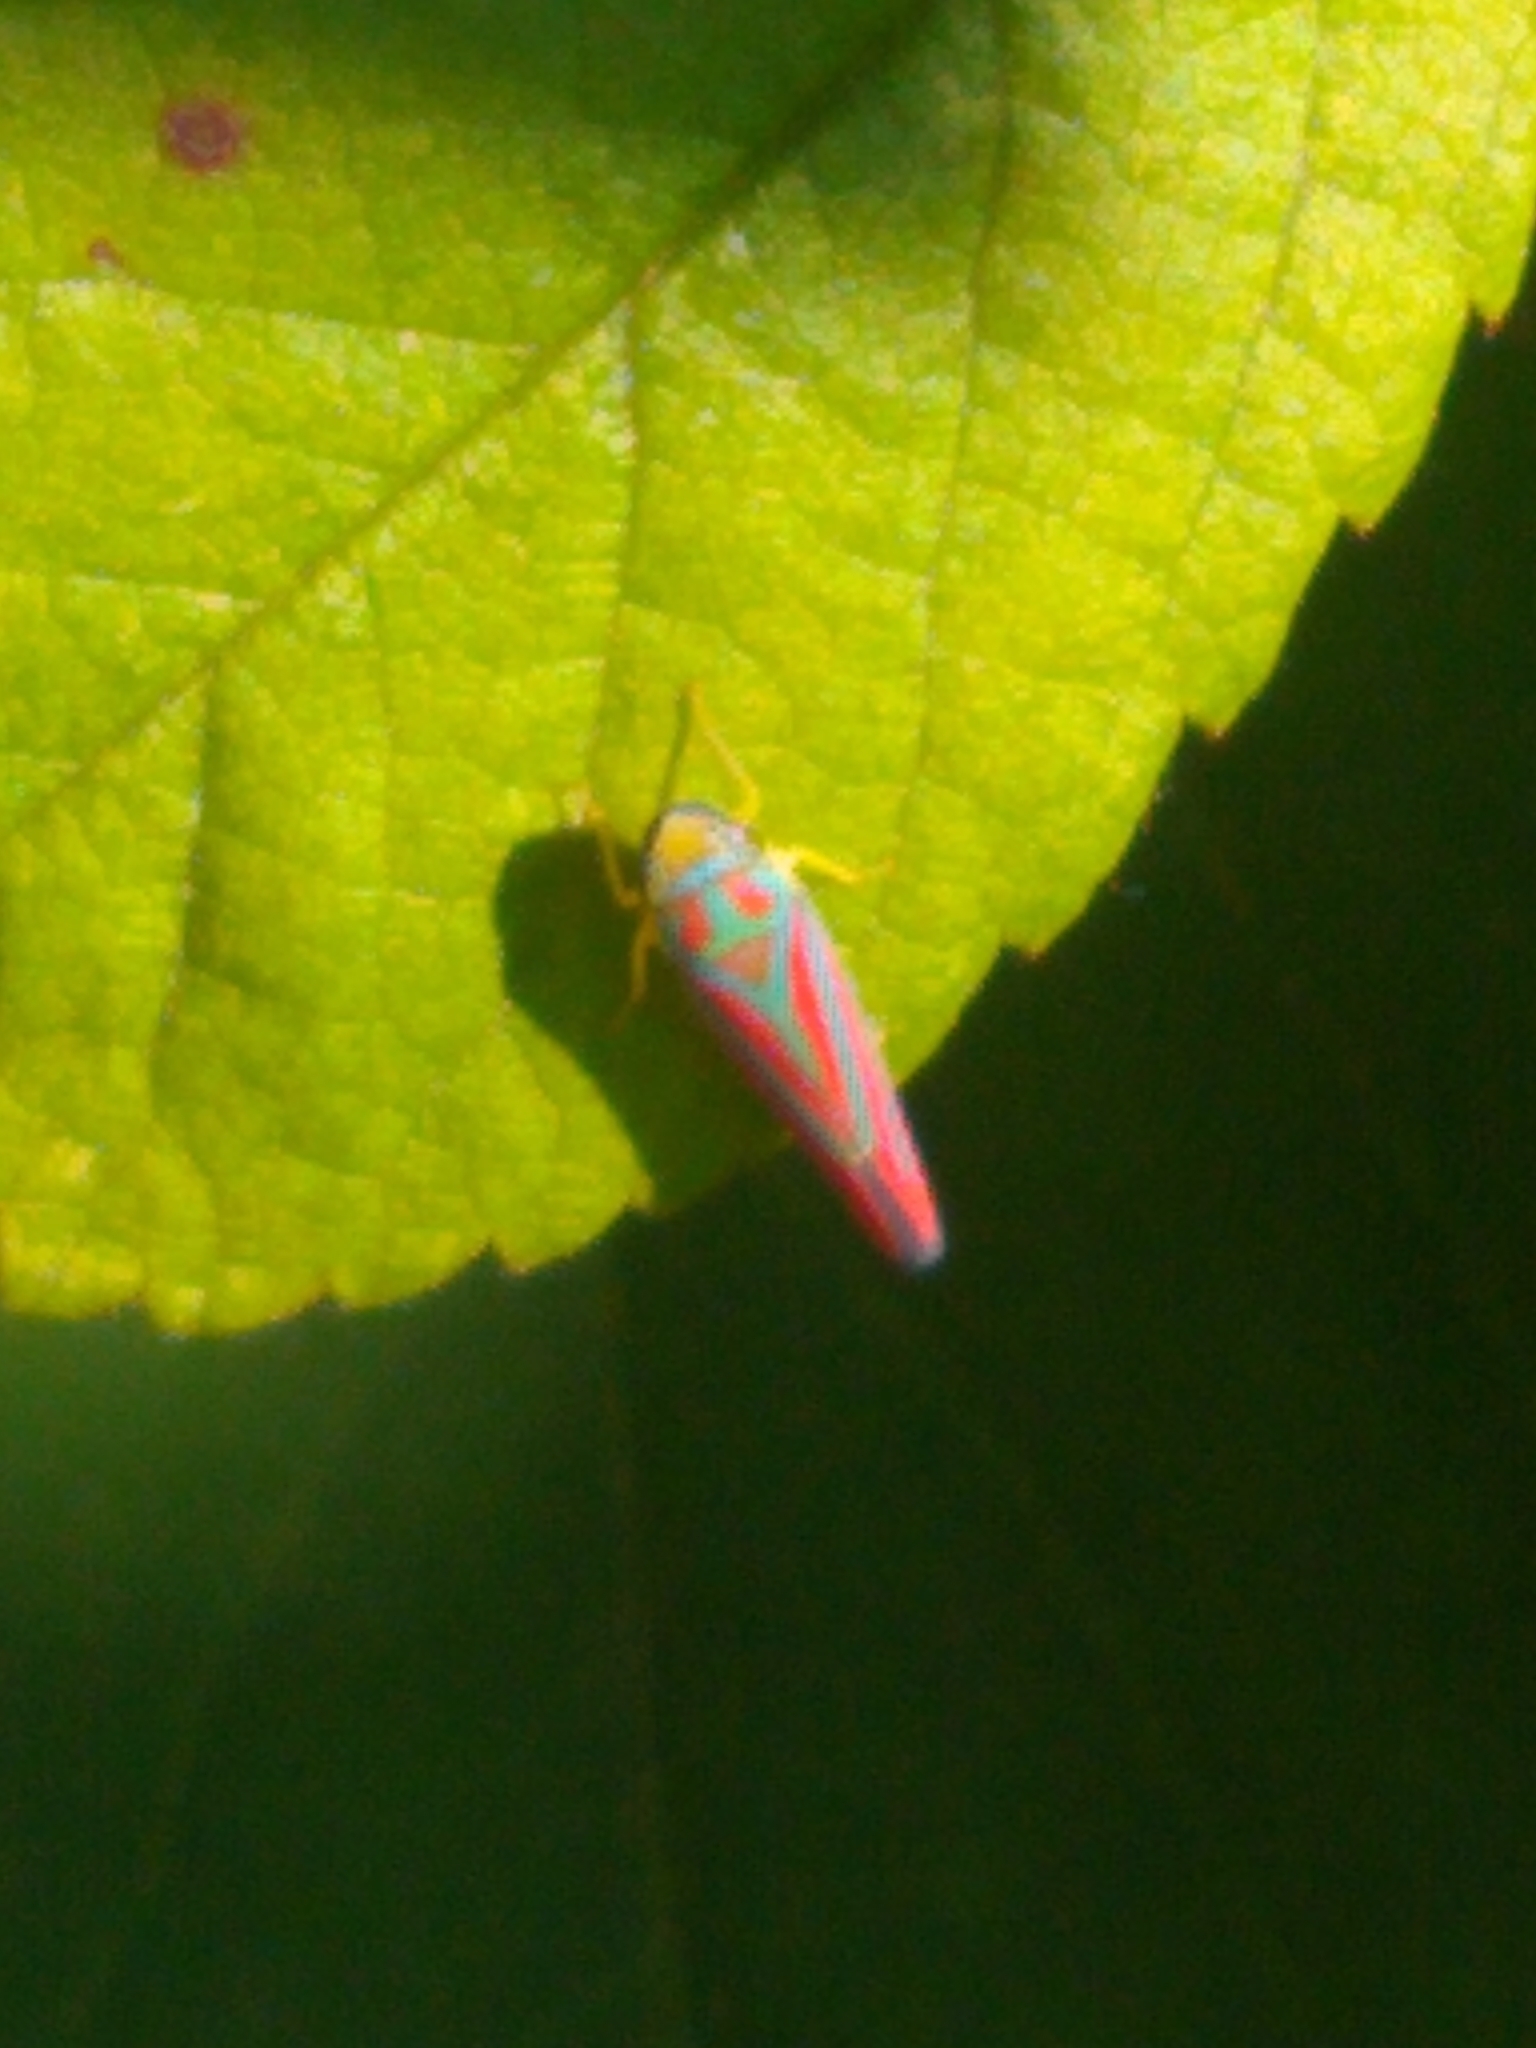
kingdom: Animalia
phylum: Arthropoda
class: Insecta
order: Hemiptera
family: Cicadellidae
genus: Graphocephala
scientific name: Graphocephala coccinea
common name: Candy-striped leafhopper
